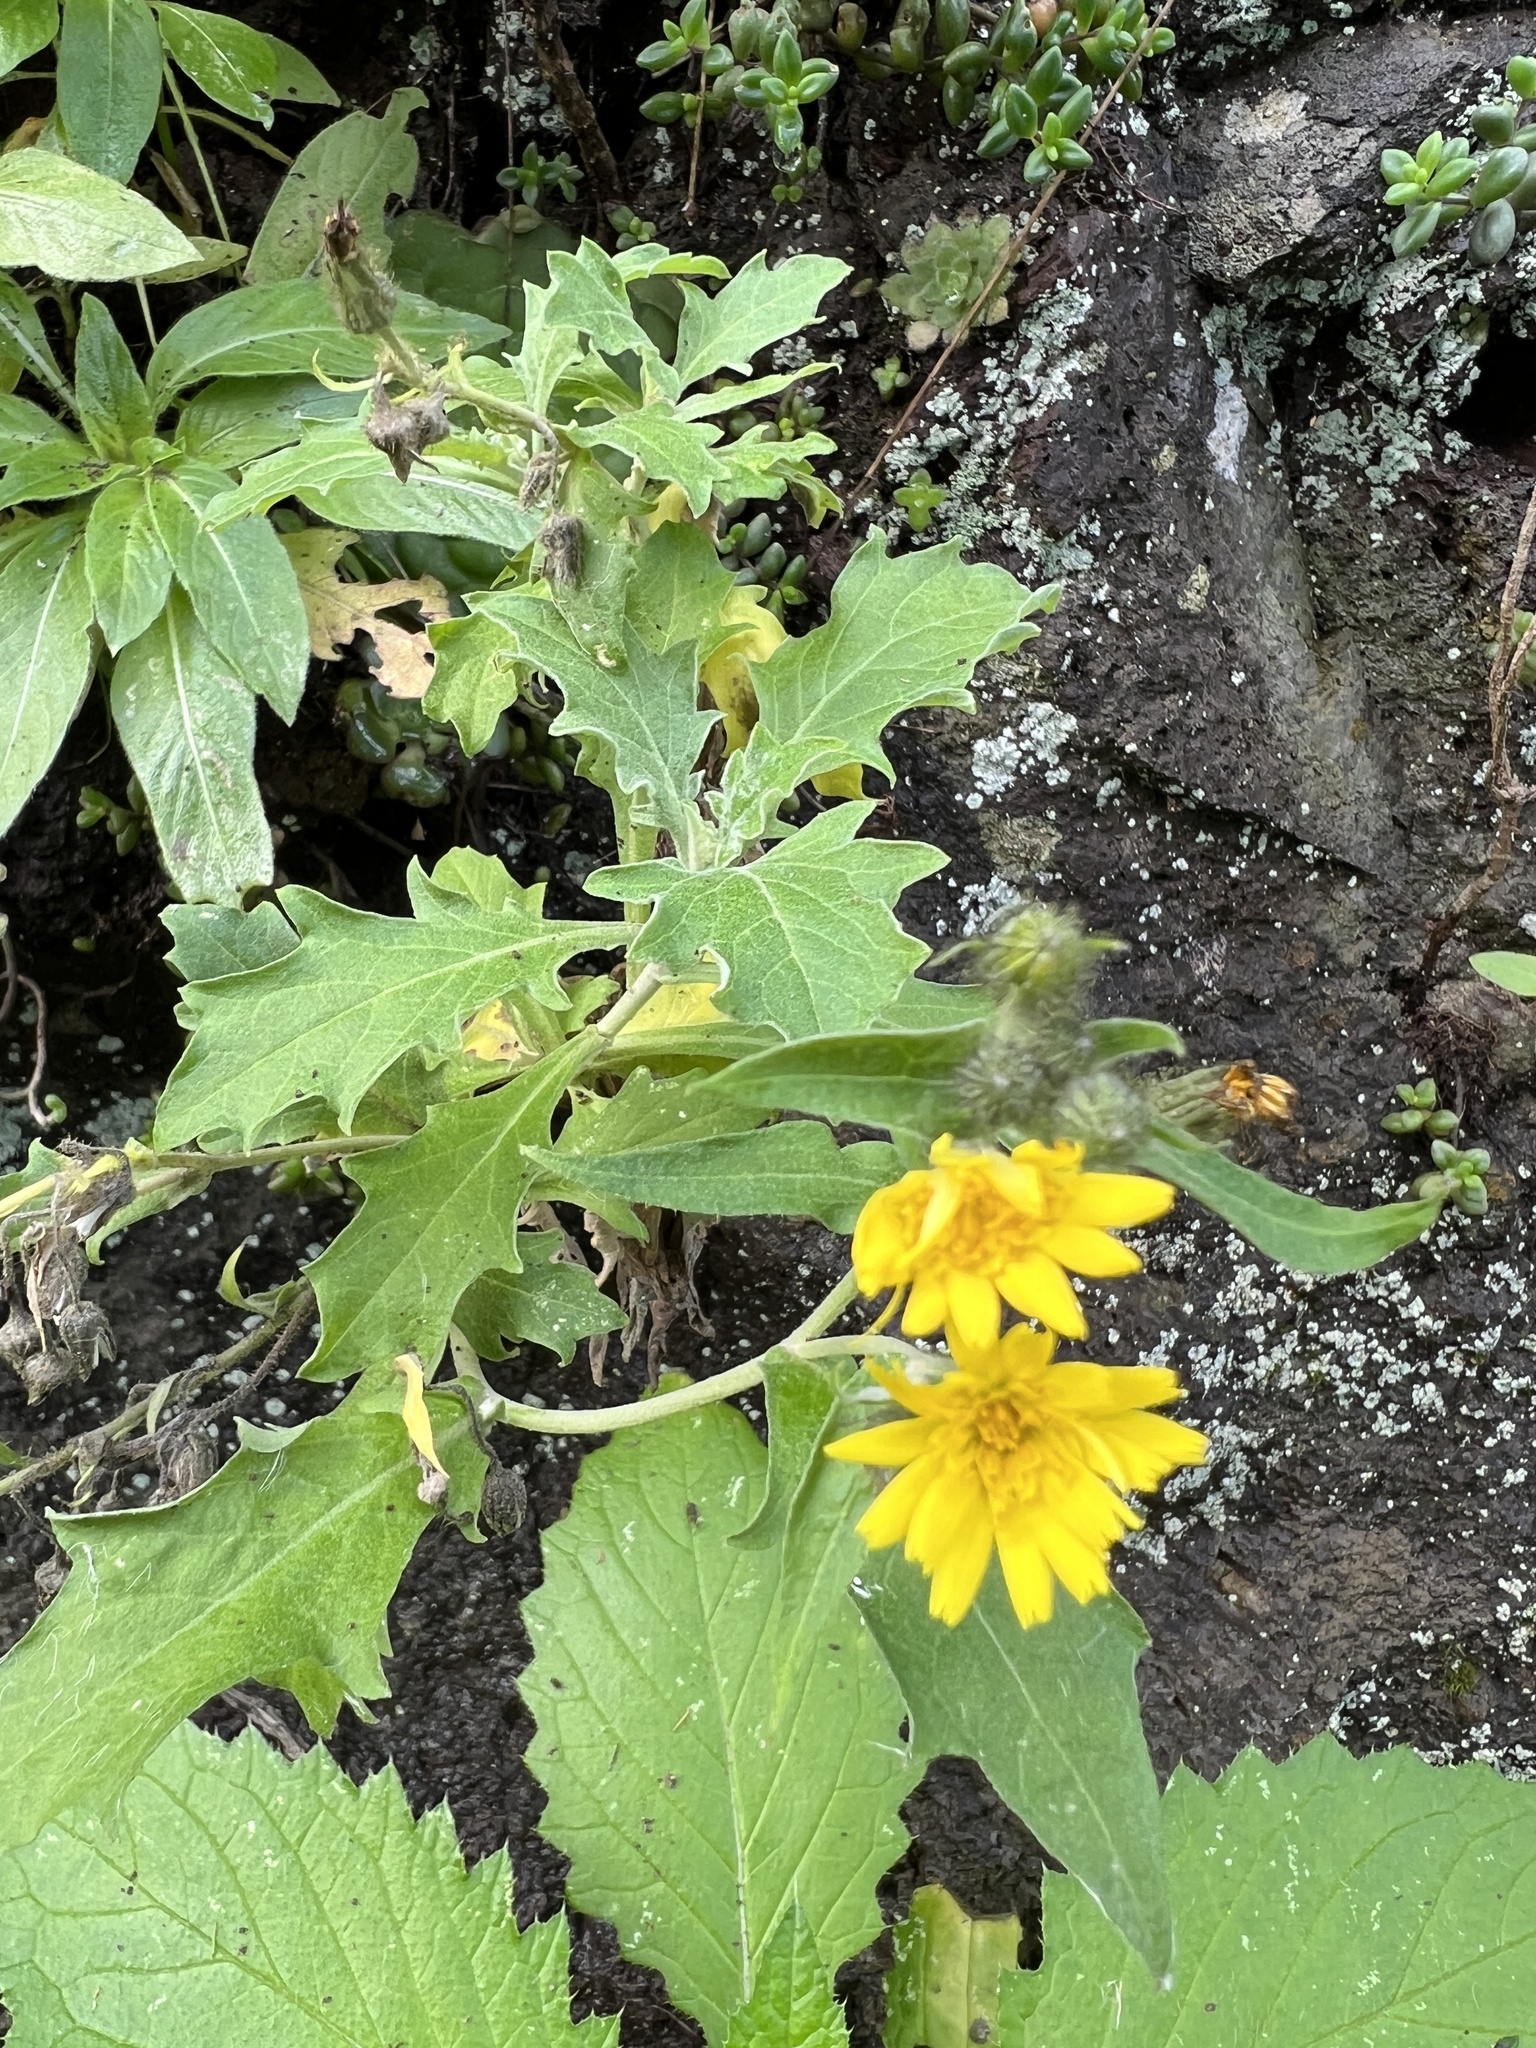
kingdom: Plantae
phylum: Tracheophyta
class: Magnoliopsida
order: Asterales
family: Asteraceae
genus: Andryala
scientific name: Andryala pinnatifida
